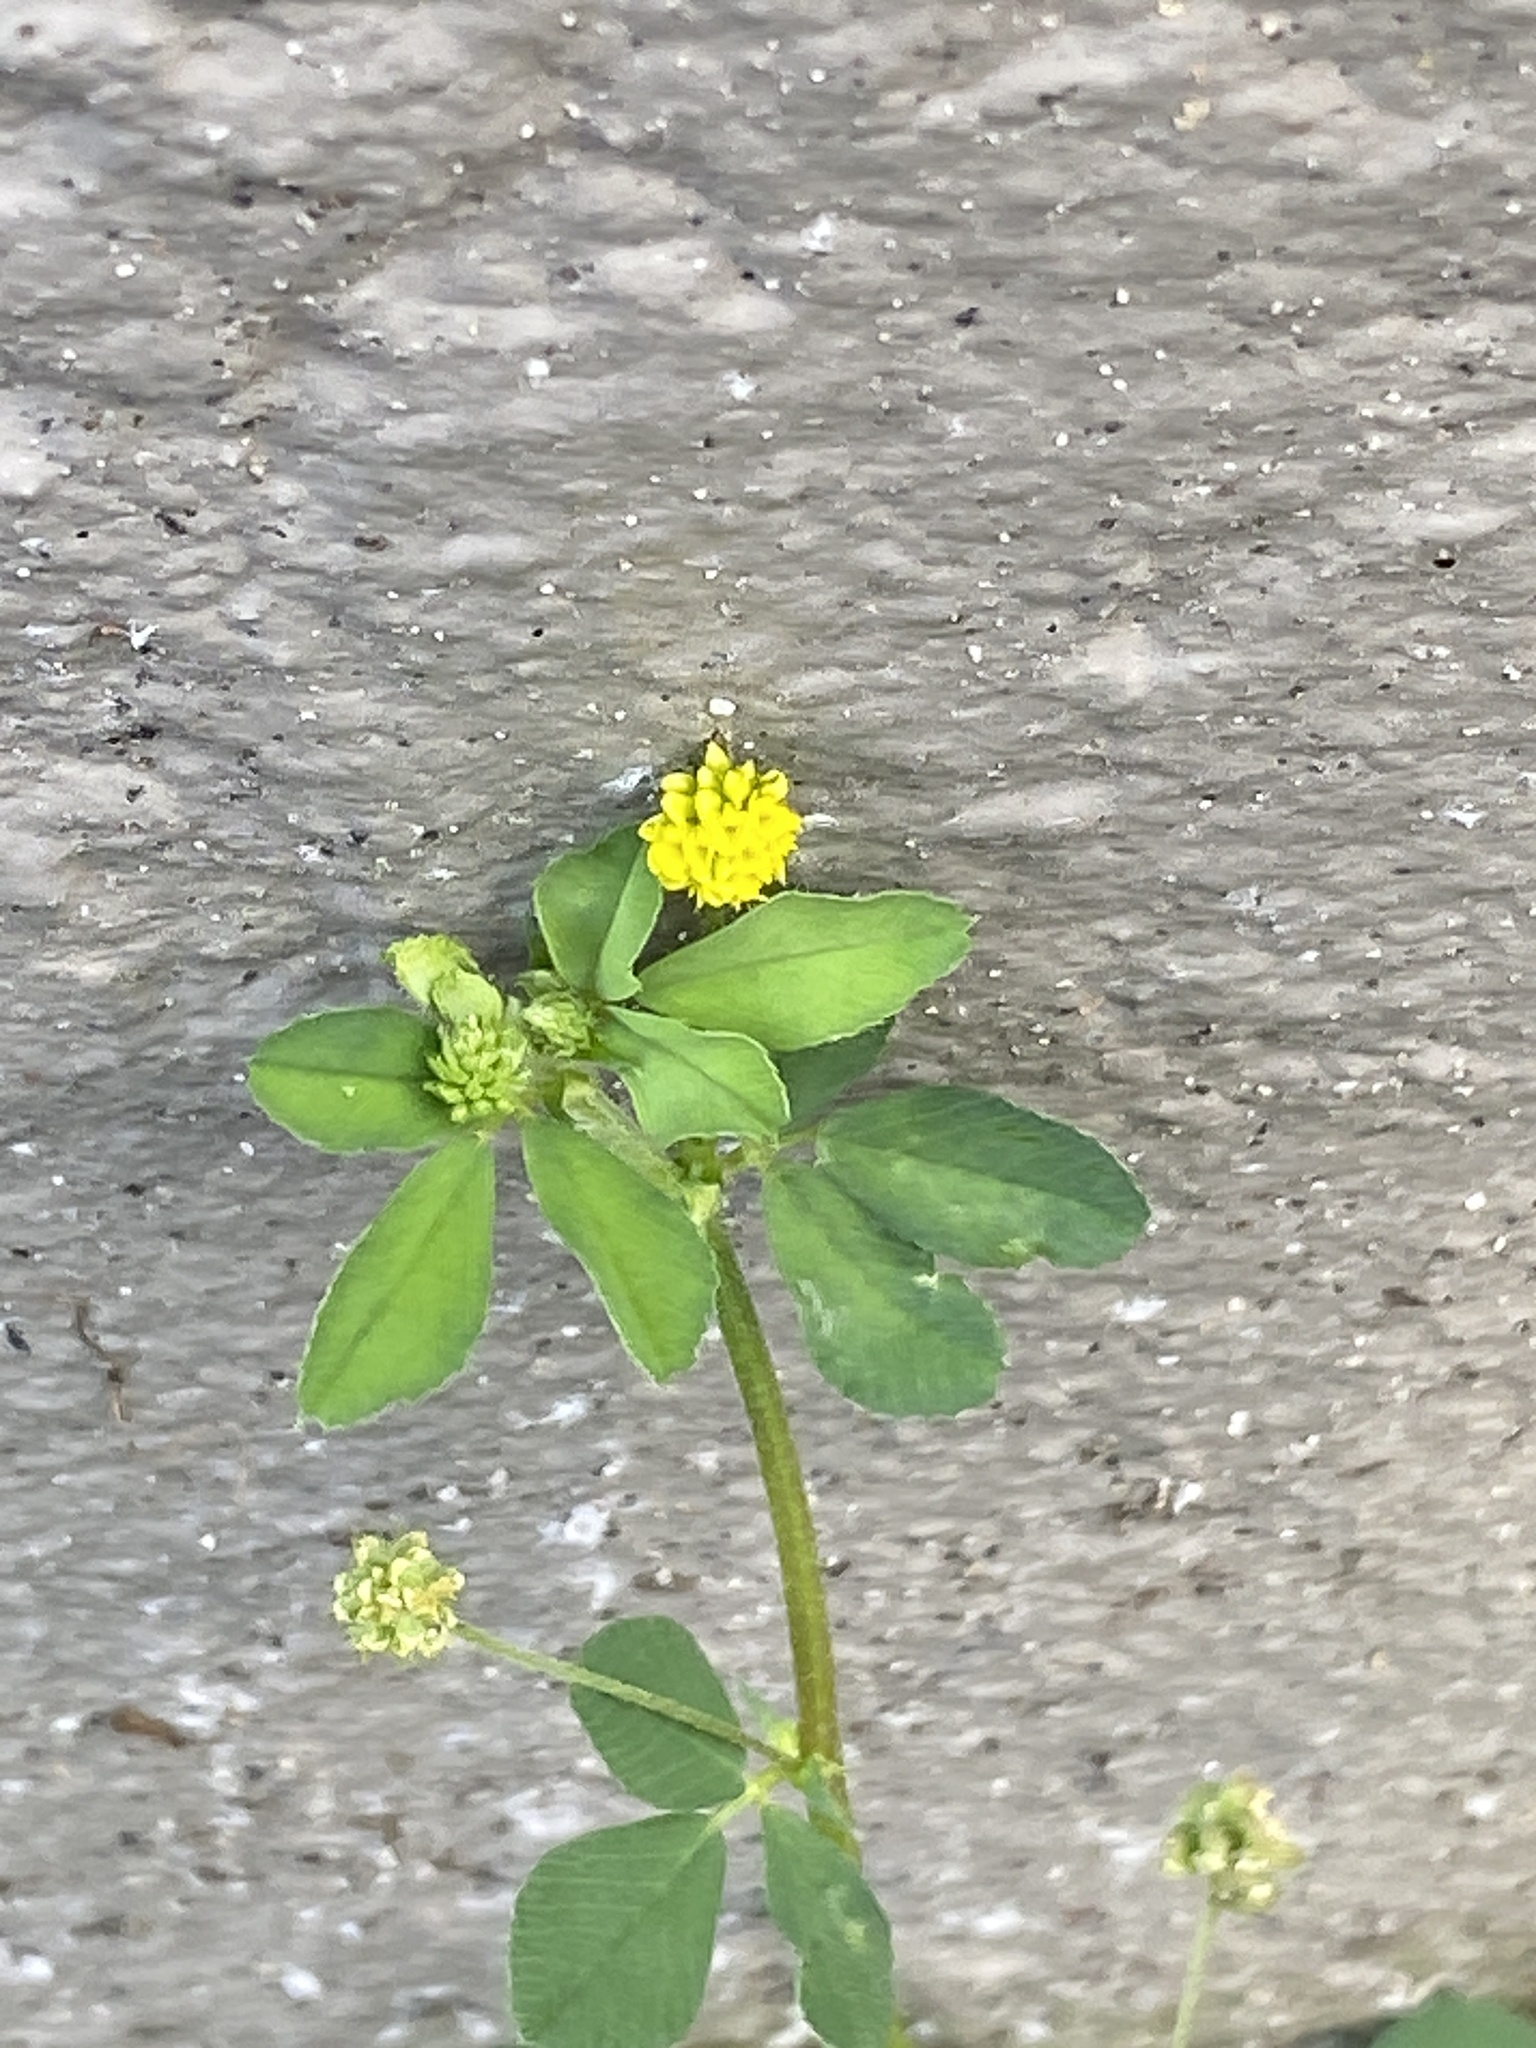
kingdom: Plantae
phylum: Tracheophyta
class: Magnoliopsida
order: Fabales
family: Fabaceae
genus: Medicago
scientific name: Medicago lupulina
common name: Black medick
